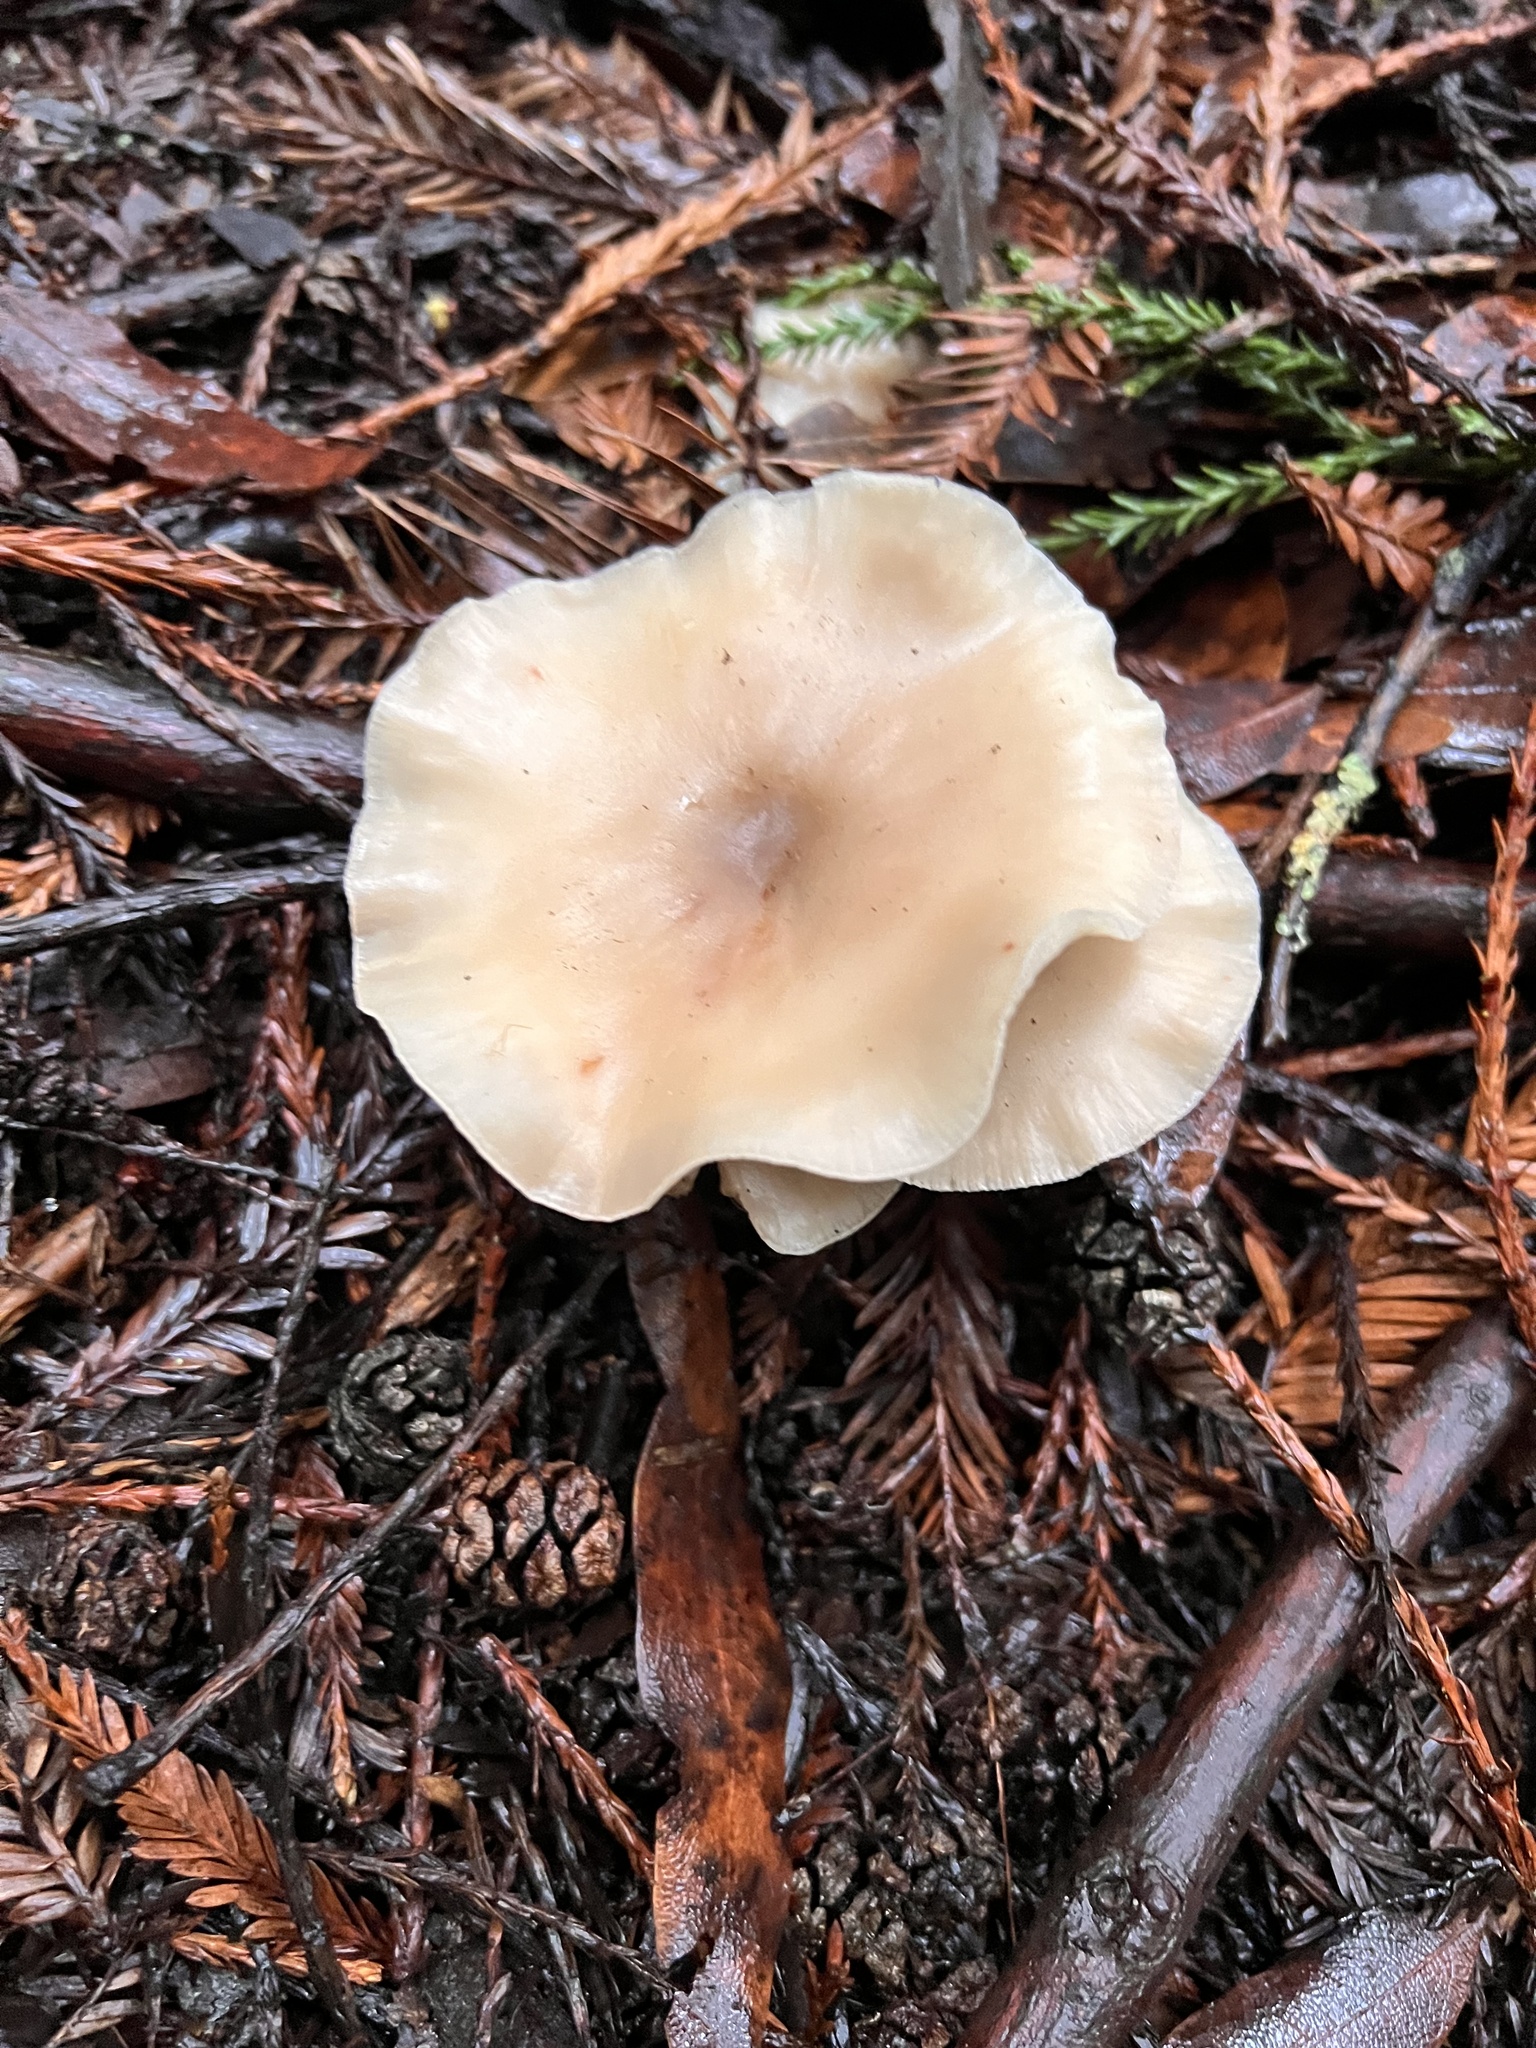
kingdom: Fungi
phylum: Basidiomycota
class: Agaricomycetes
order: Agaricales
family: Tricholomataceae
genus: Clitocybe
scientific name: Clitocybe fragrans
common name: Fragrant funnel
